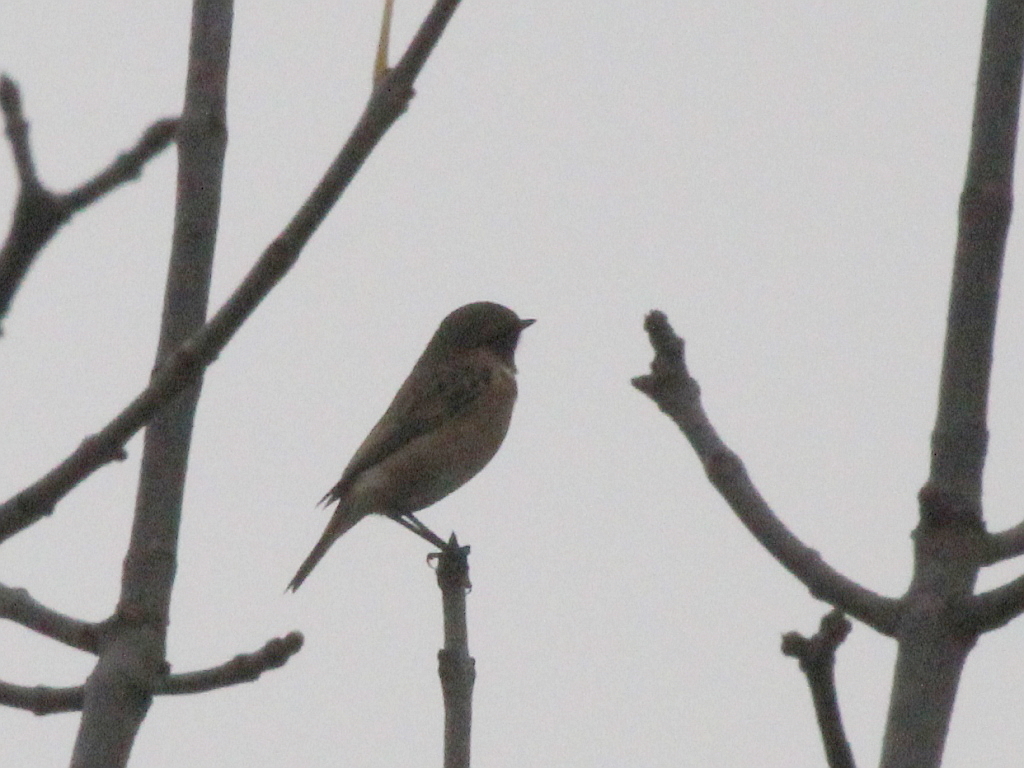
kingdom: Animalia
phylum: Chordata
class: Aves
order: Passeriformes
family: Muscicapidae
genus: Saxicola
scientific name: Saxicola rubicola
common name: European stonechat
